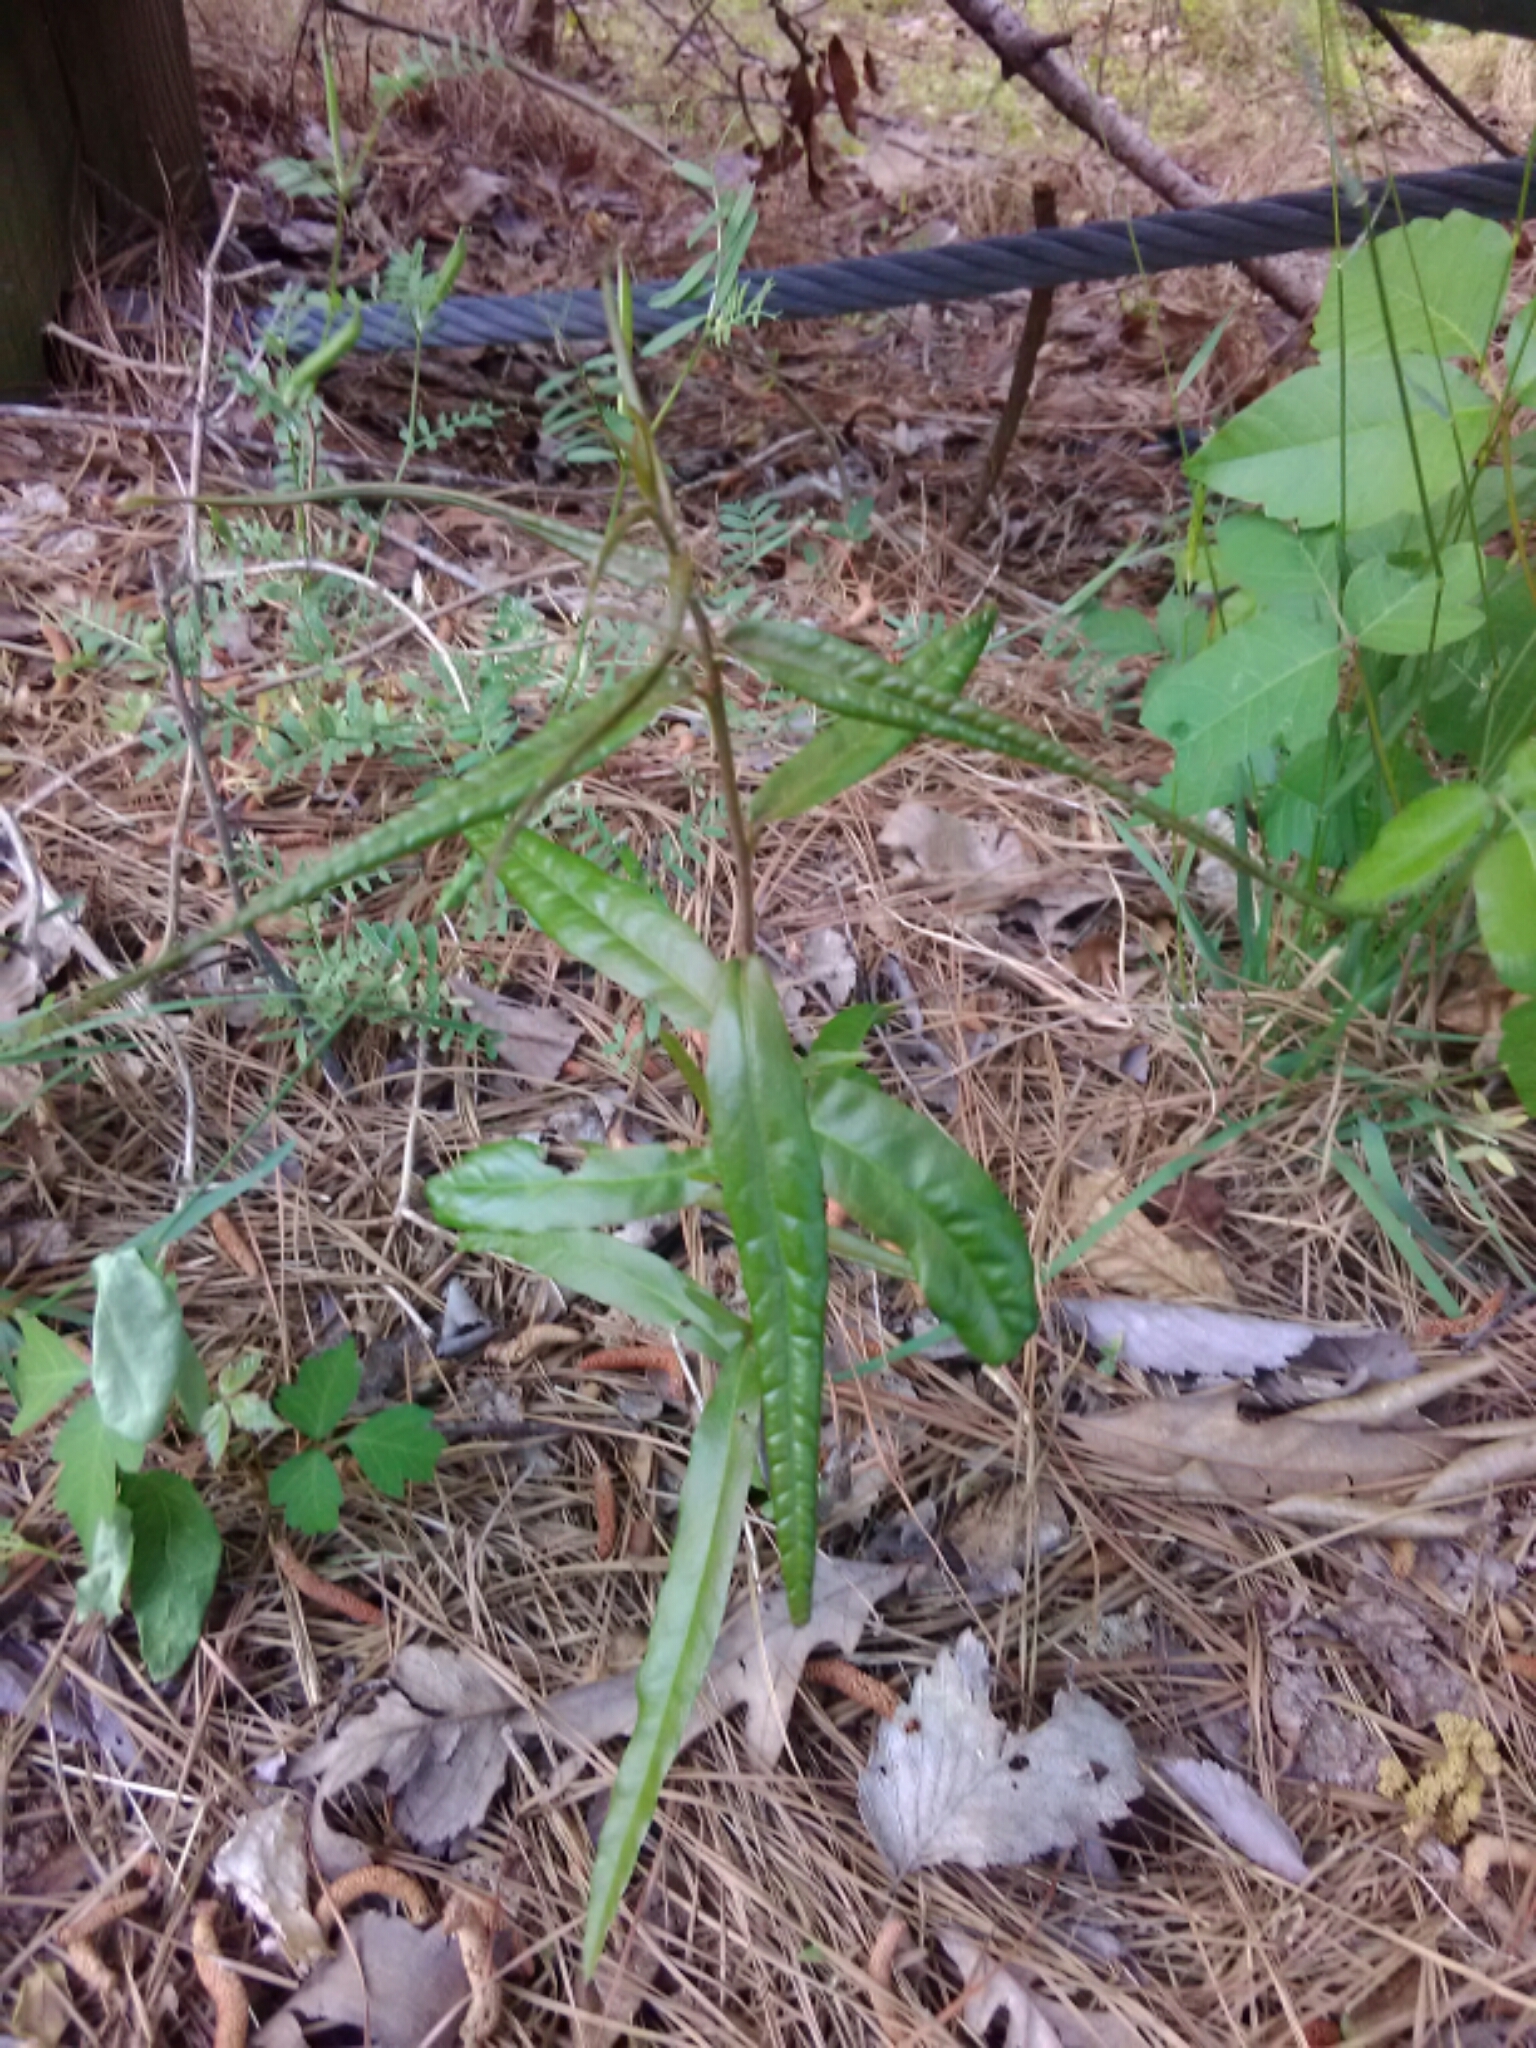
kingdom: Plantae
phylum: Tracheophyta
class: Magnoliopsida
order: Fagales
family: Fagaceae
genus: Quercus
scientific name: Quercus phellos
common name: Willow oak
